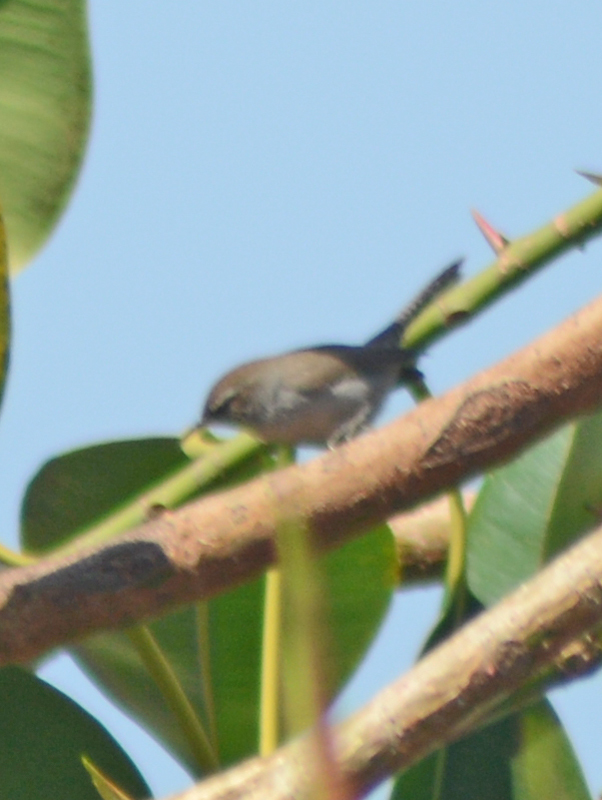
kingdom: Animalia
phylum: Chordata
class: Aves
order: Passeriformes
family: Troglodytidae
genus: Thryomanes
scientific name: Thryomanes bewickii
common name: Bewick's wren
